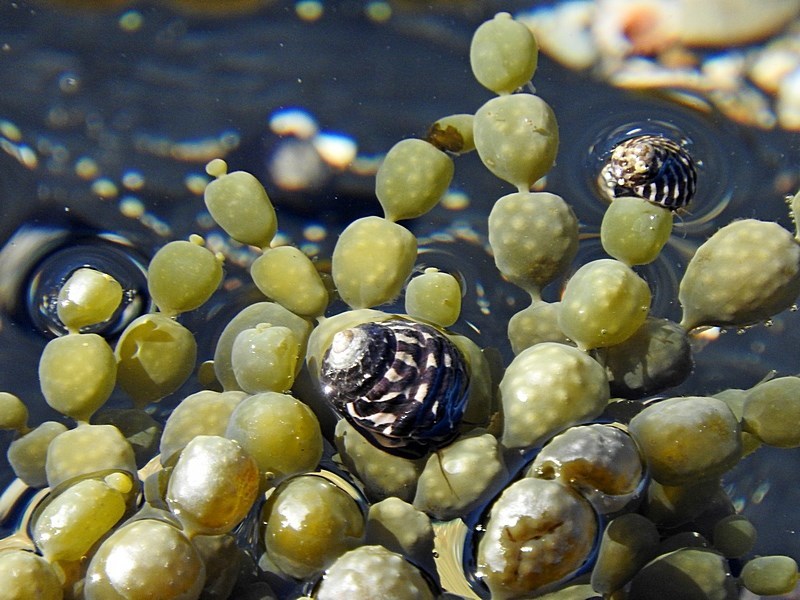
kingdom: Animalia
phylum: Mollusca
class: Gastropoda
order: Trochida
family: Trochidae
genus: Austrocochlea
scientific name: Austrocochlea porcata
